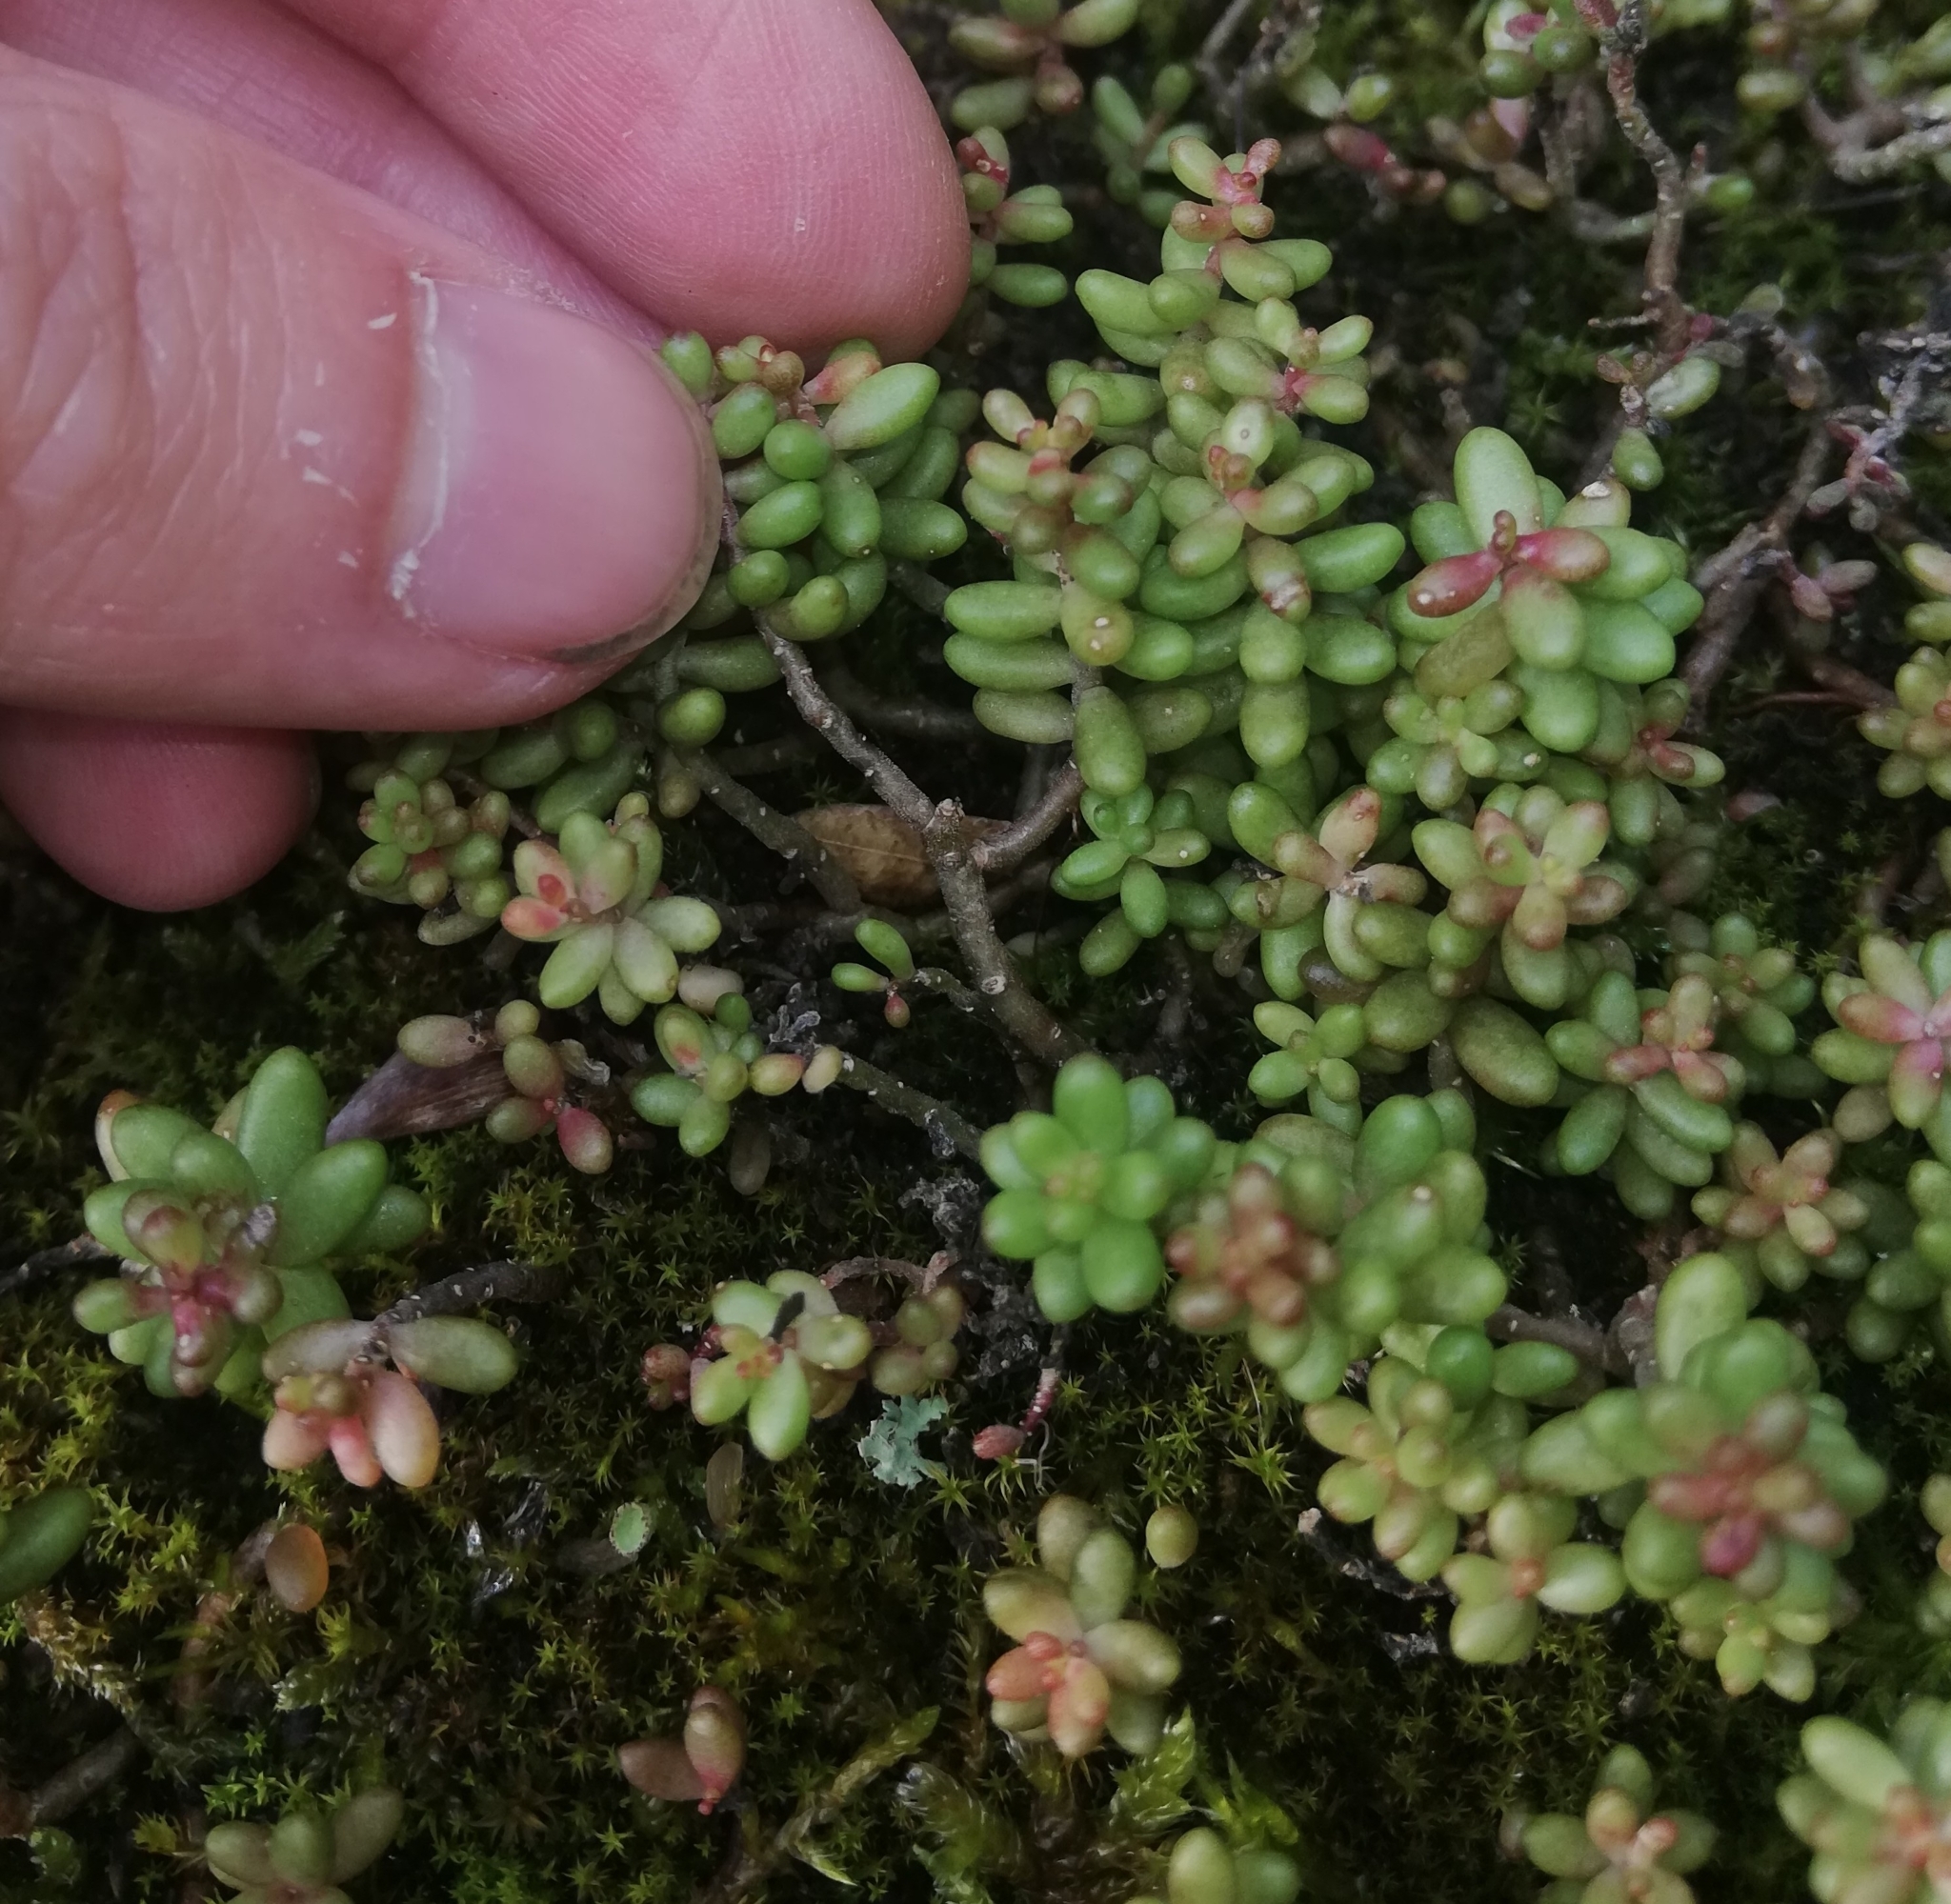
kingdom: Plantae
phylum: Tracheophyta
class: Magnoliopsida
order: Saxifragales
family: Crassulaceae
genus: Sedum
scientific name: Sedum album
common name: White stonecrop
